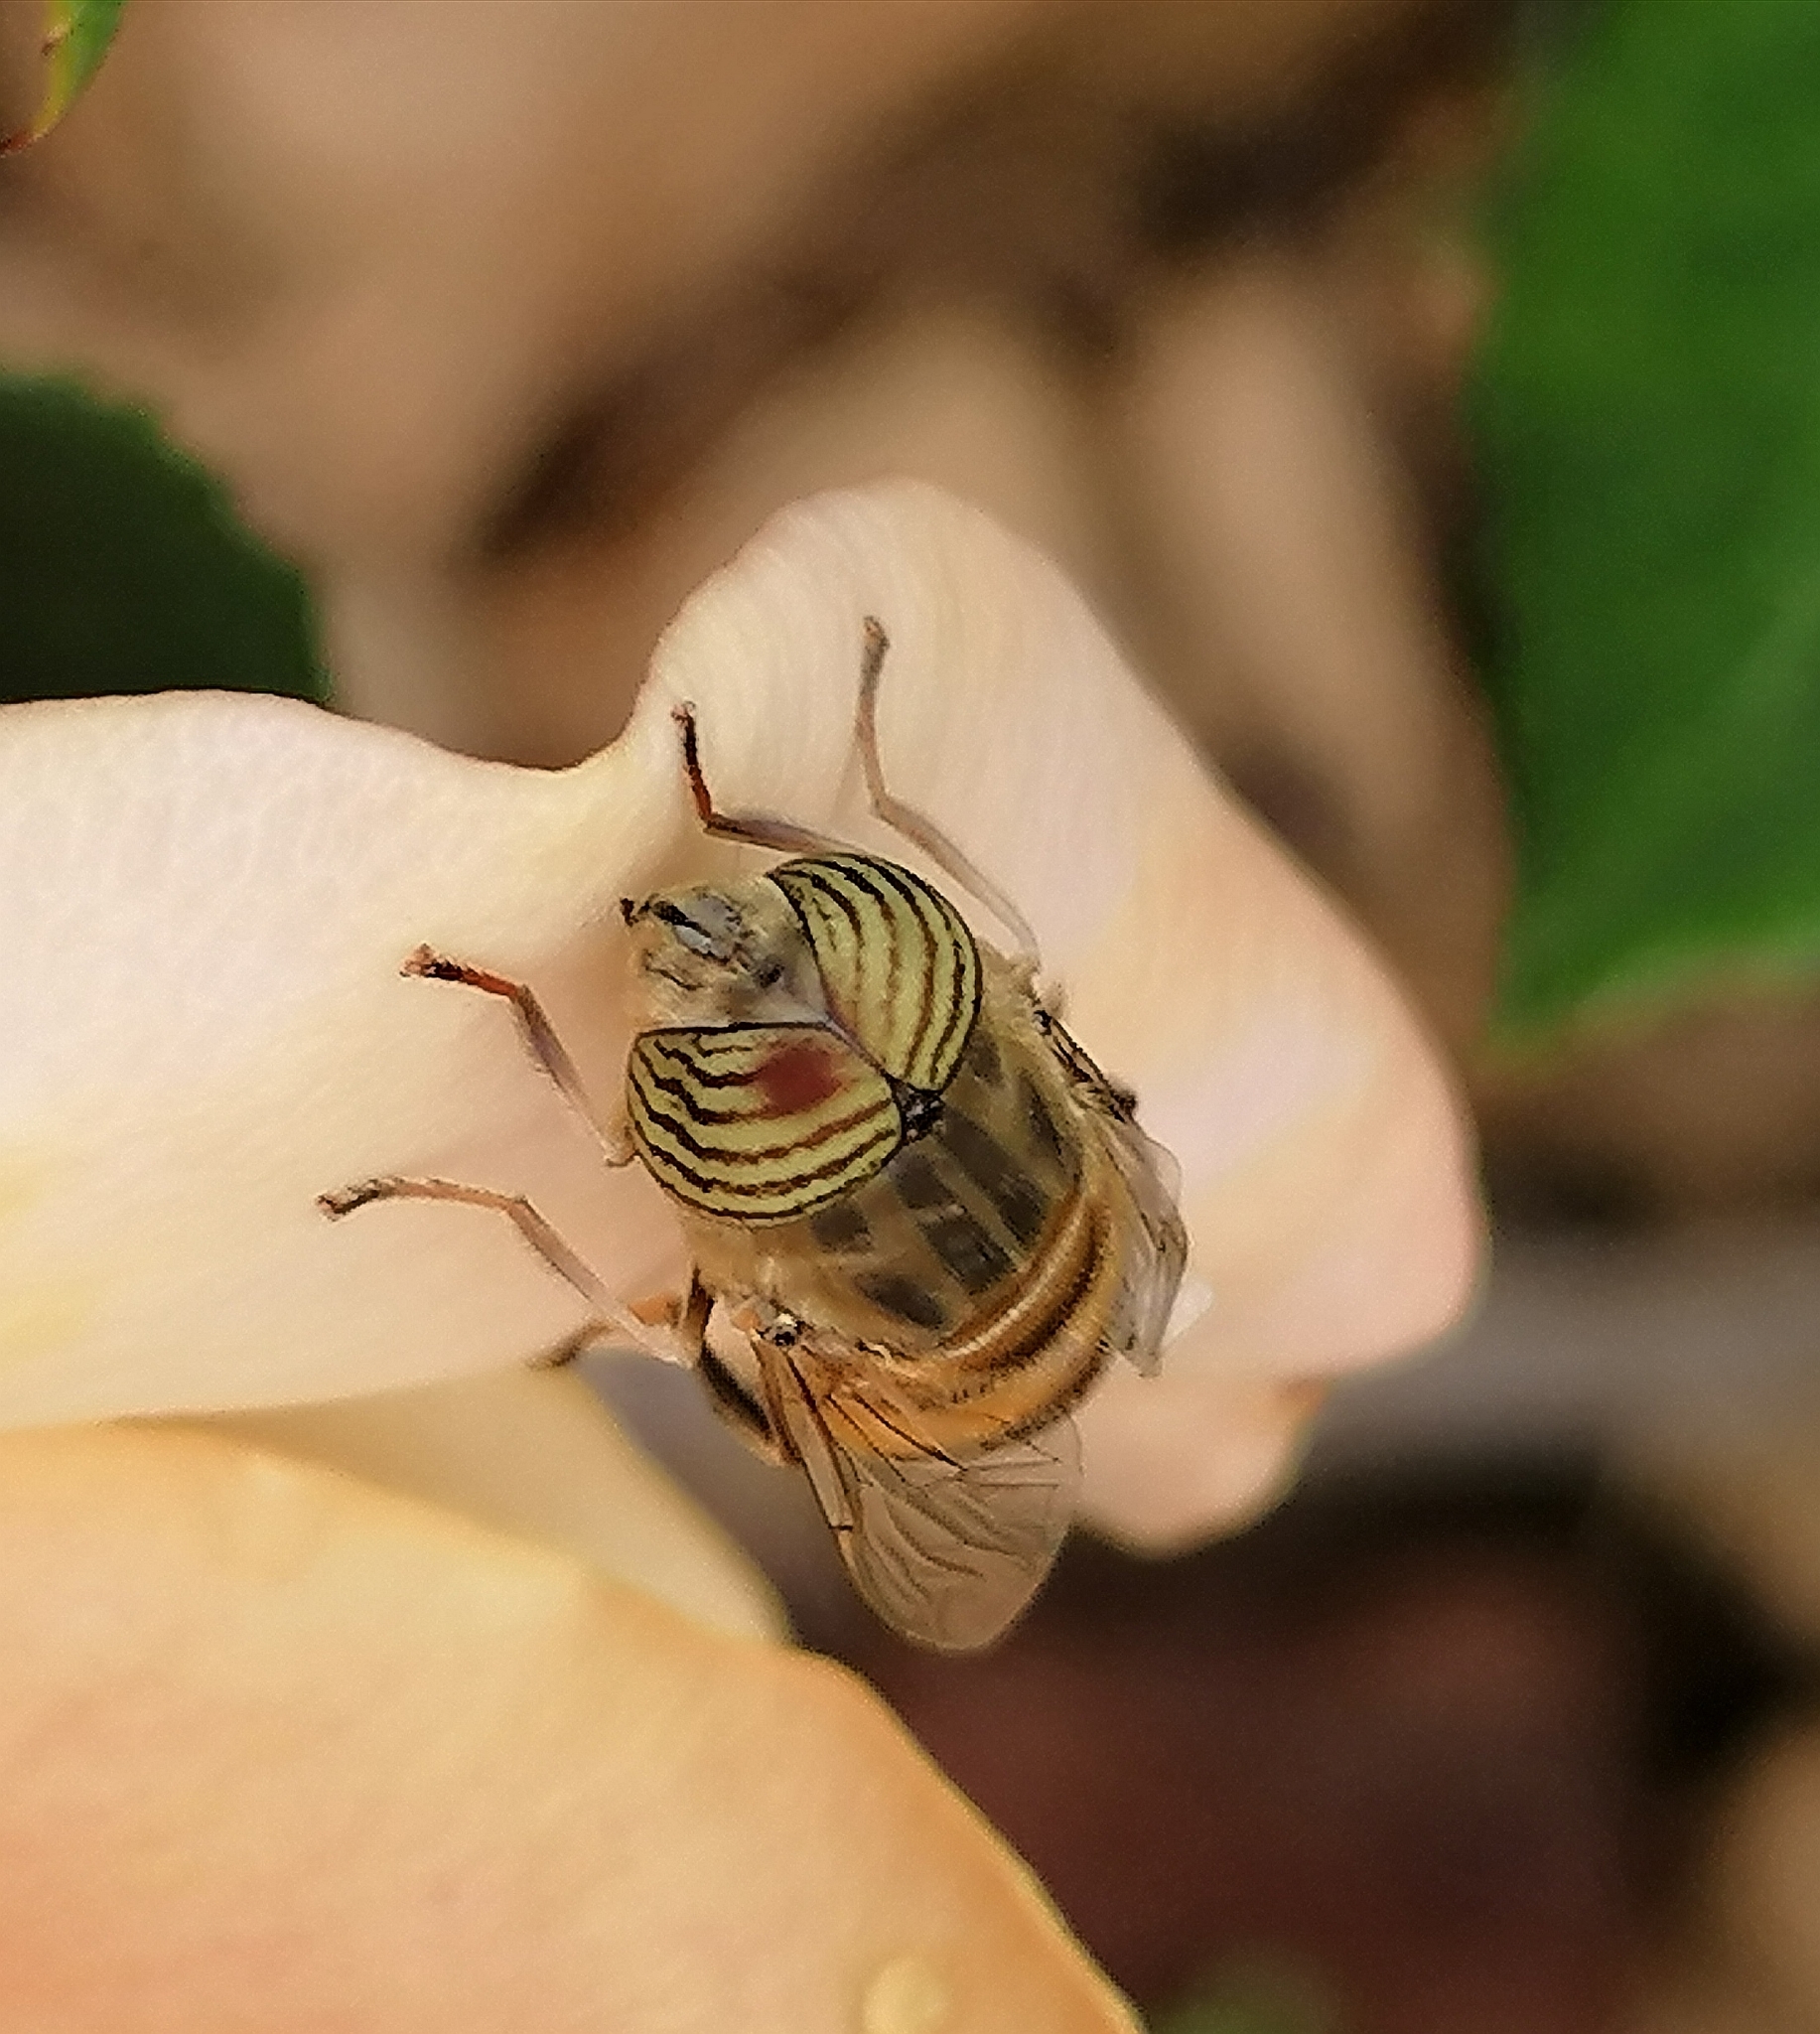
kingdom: Animalia
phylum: Arthropoda
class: Insecta
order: Diptera
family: Syrphidae
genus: Eristalinus
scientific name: Eristalinus taeniops
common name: Syrphid fly
